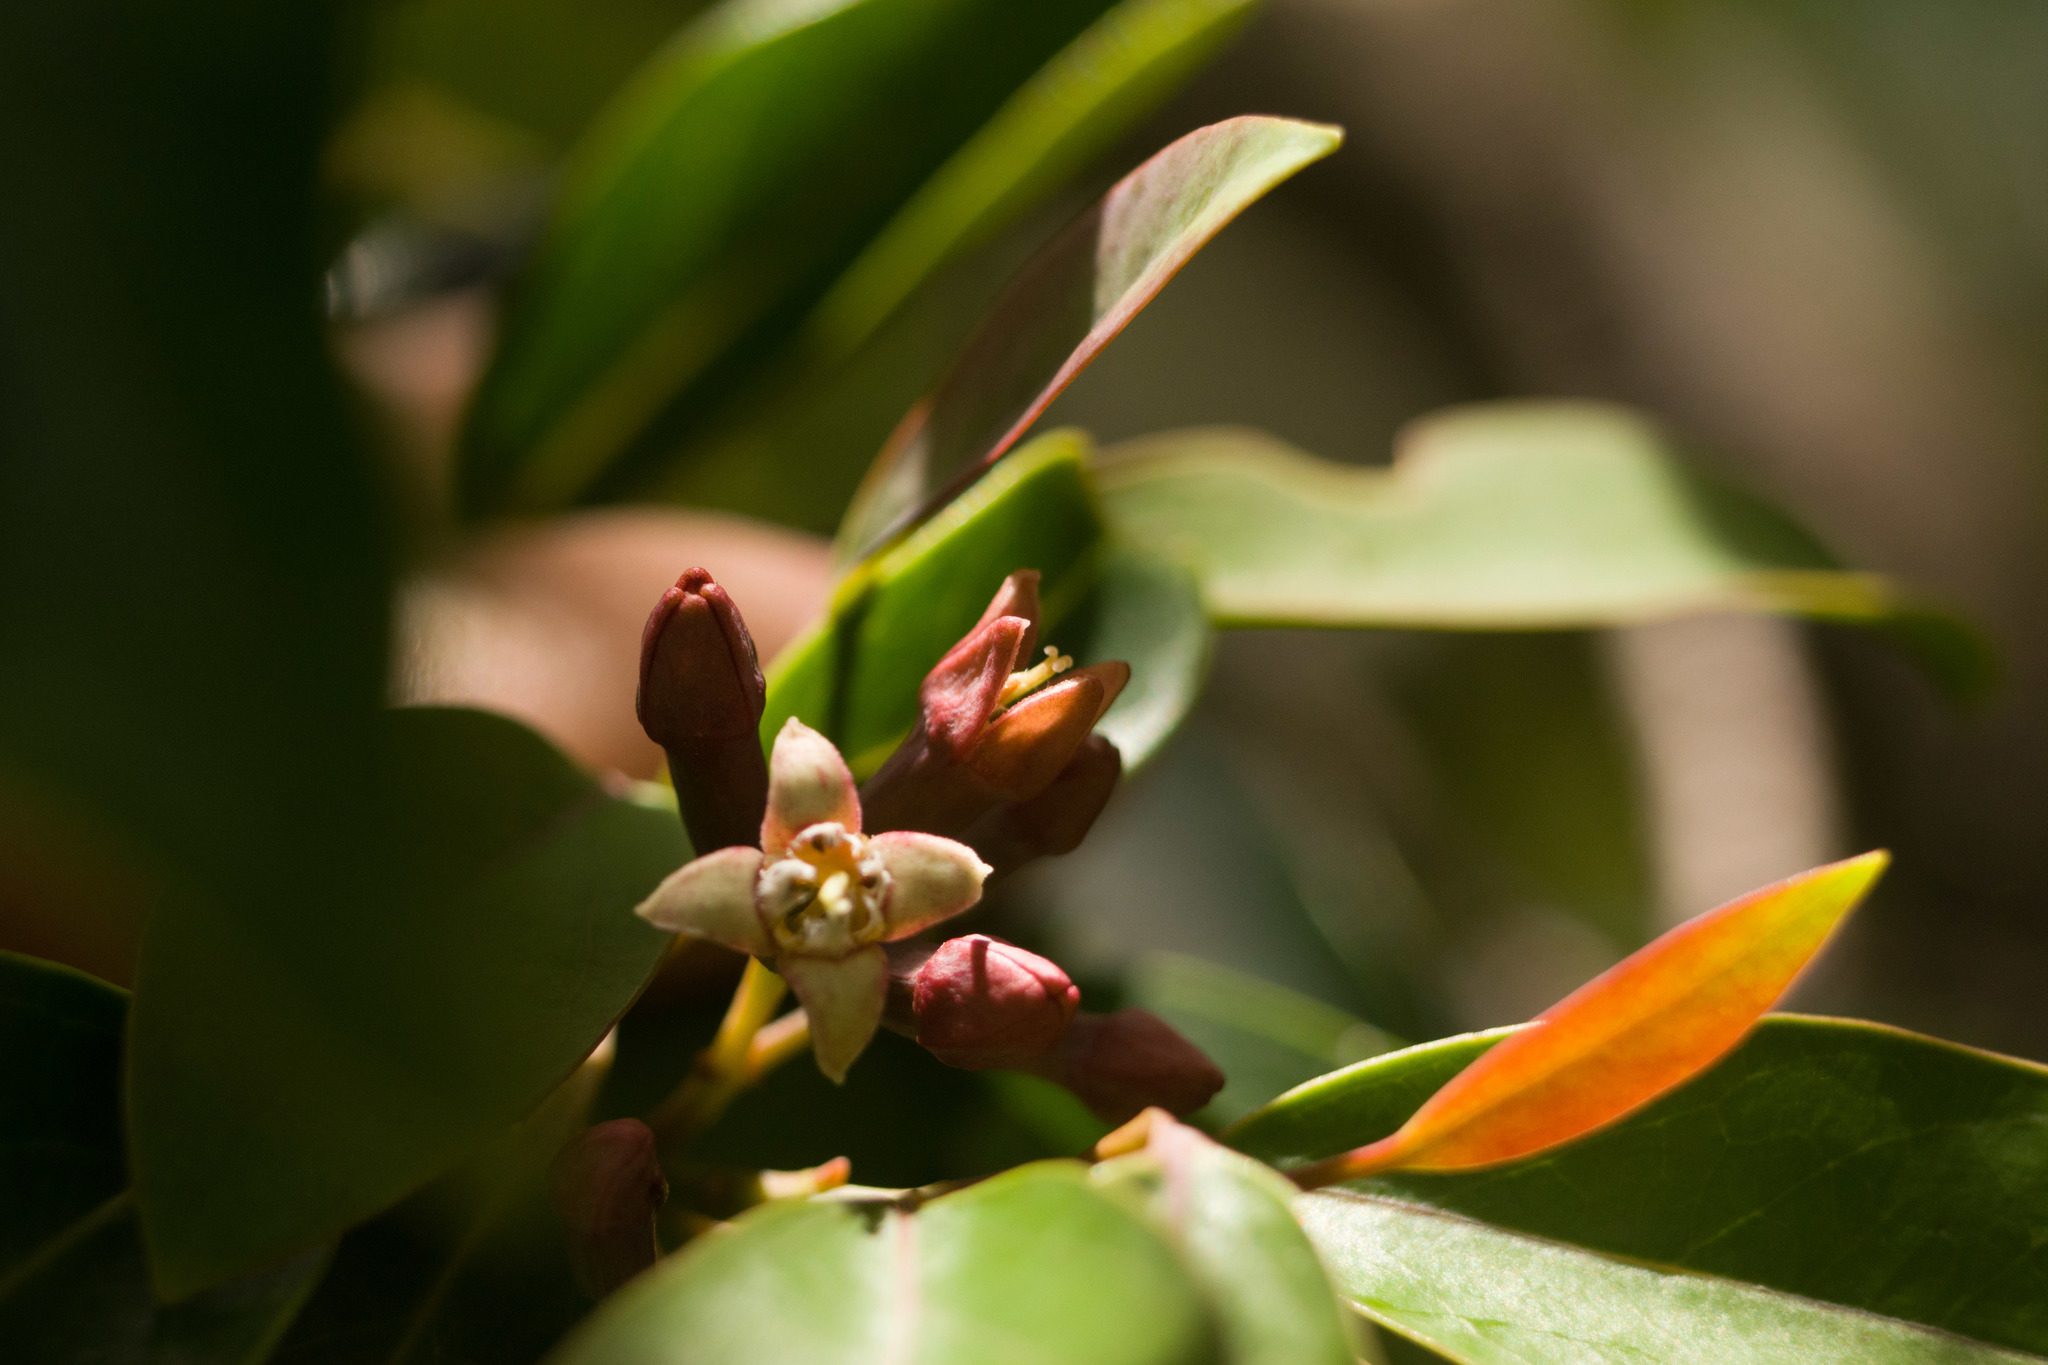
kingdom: Plantae
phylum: Tracheophyta
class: Magnoliopsida
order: Santalales
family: Santalaceae
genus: Santalum
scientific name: Santalum freycinetianum
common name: Lanai sandalwood
